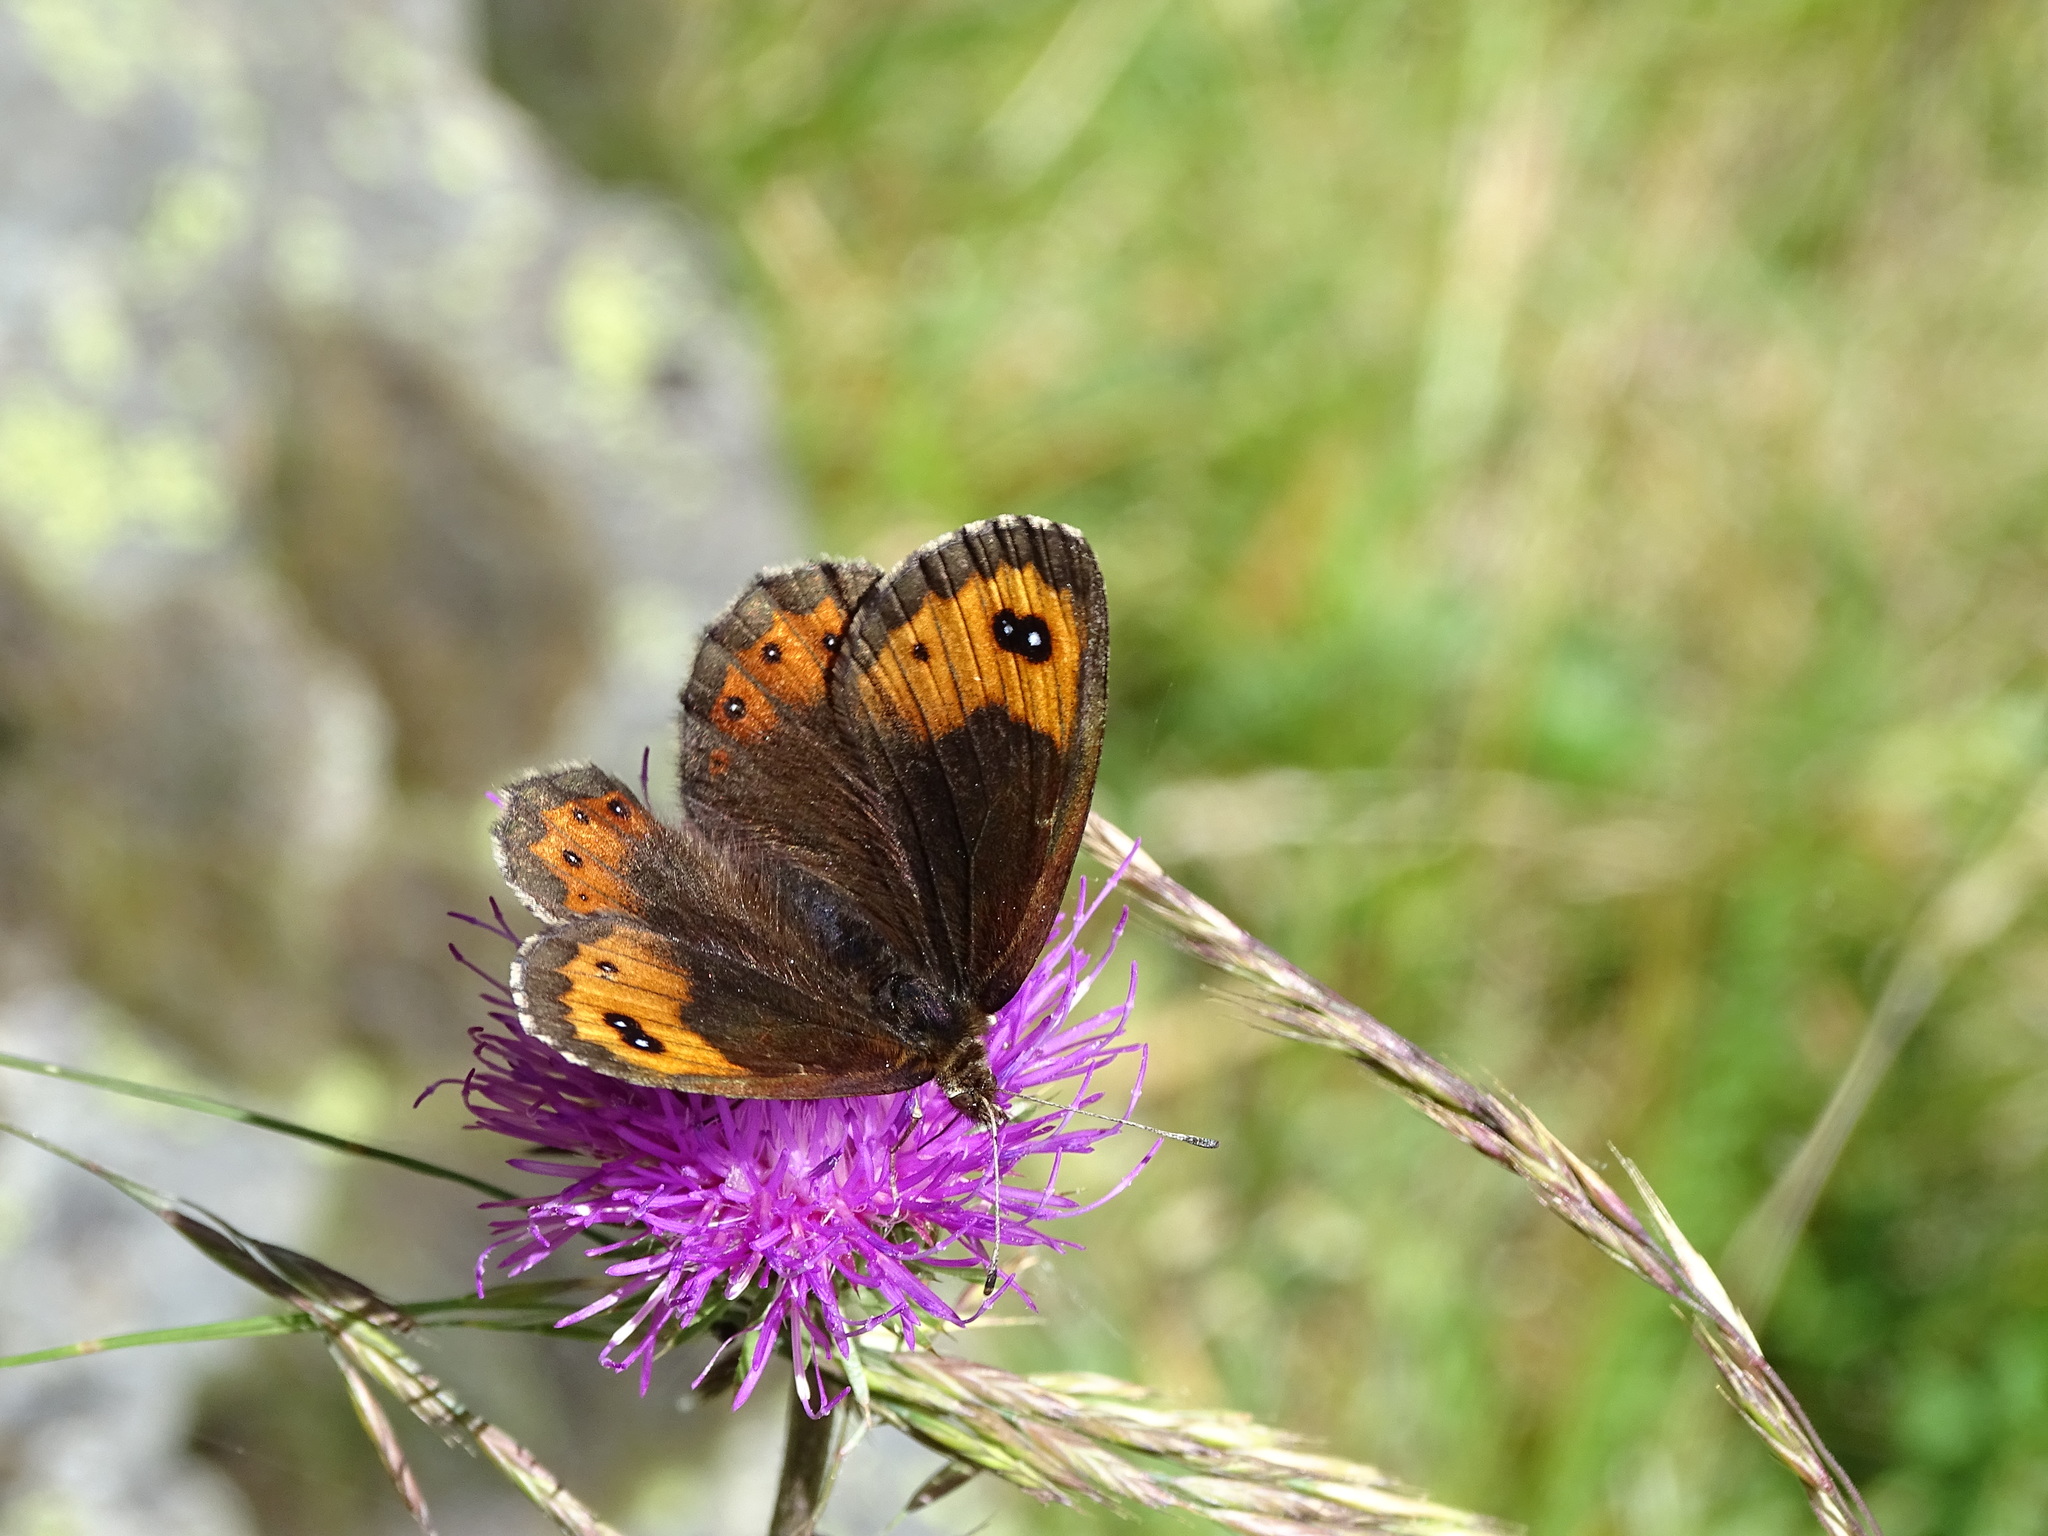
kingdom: Animalia
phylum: Arthropoda
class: Insecta
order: Lepidoptera
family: Nymphalidae
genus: Erebia
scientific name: Erebia montanus
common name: Marbled ringlet
